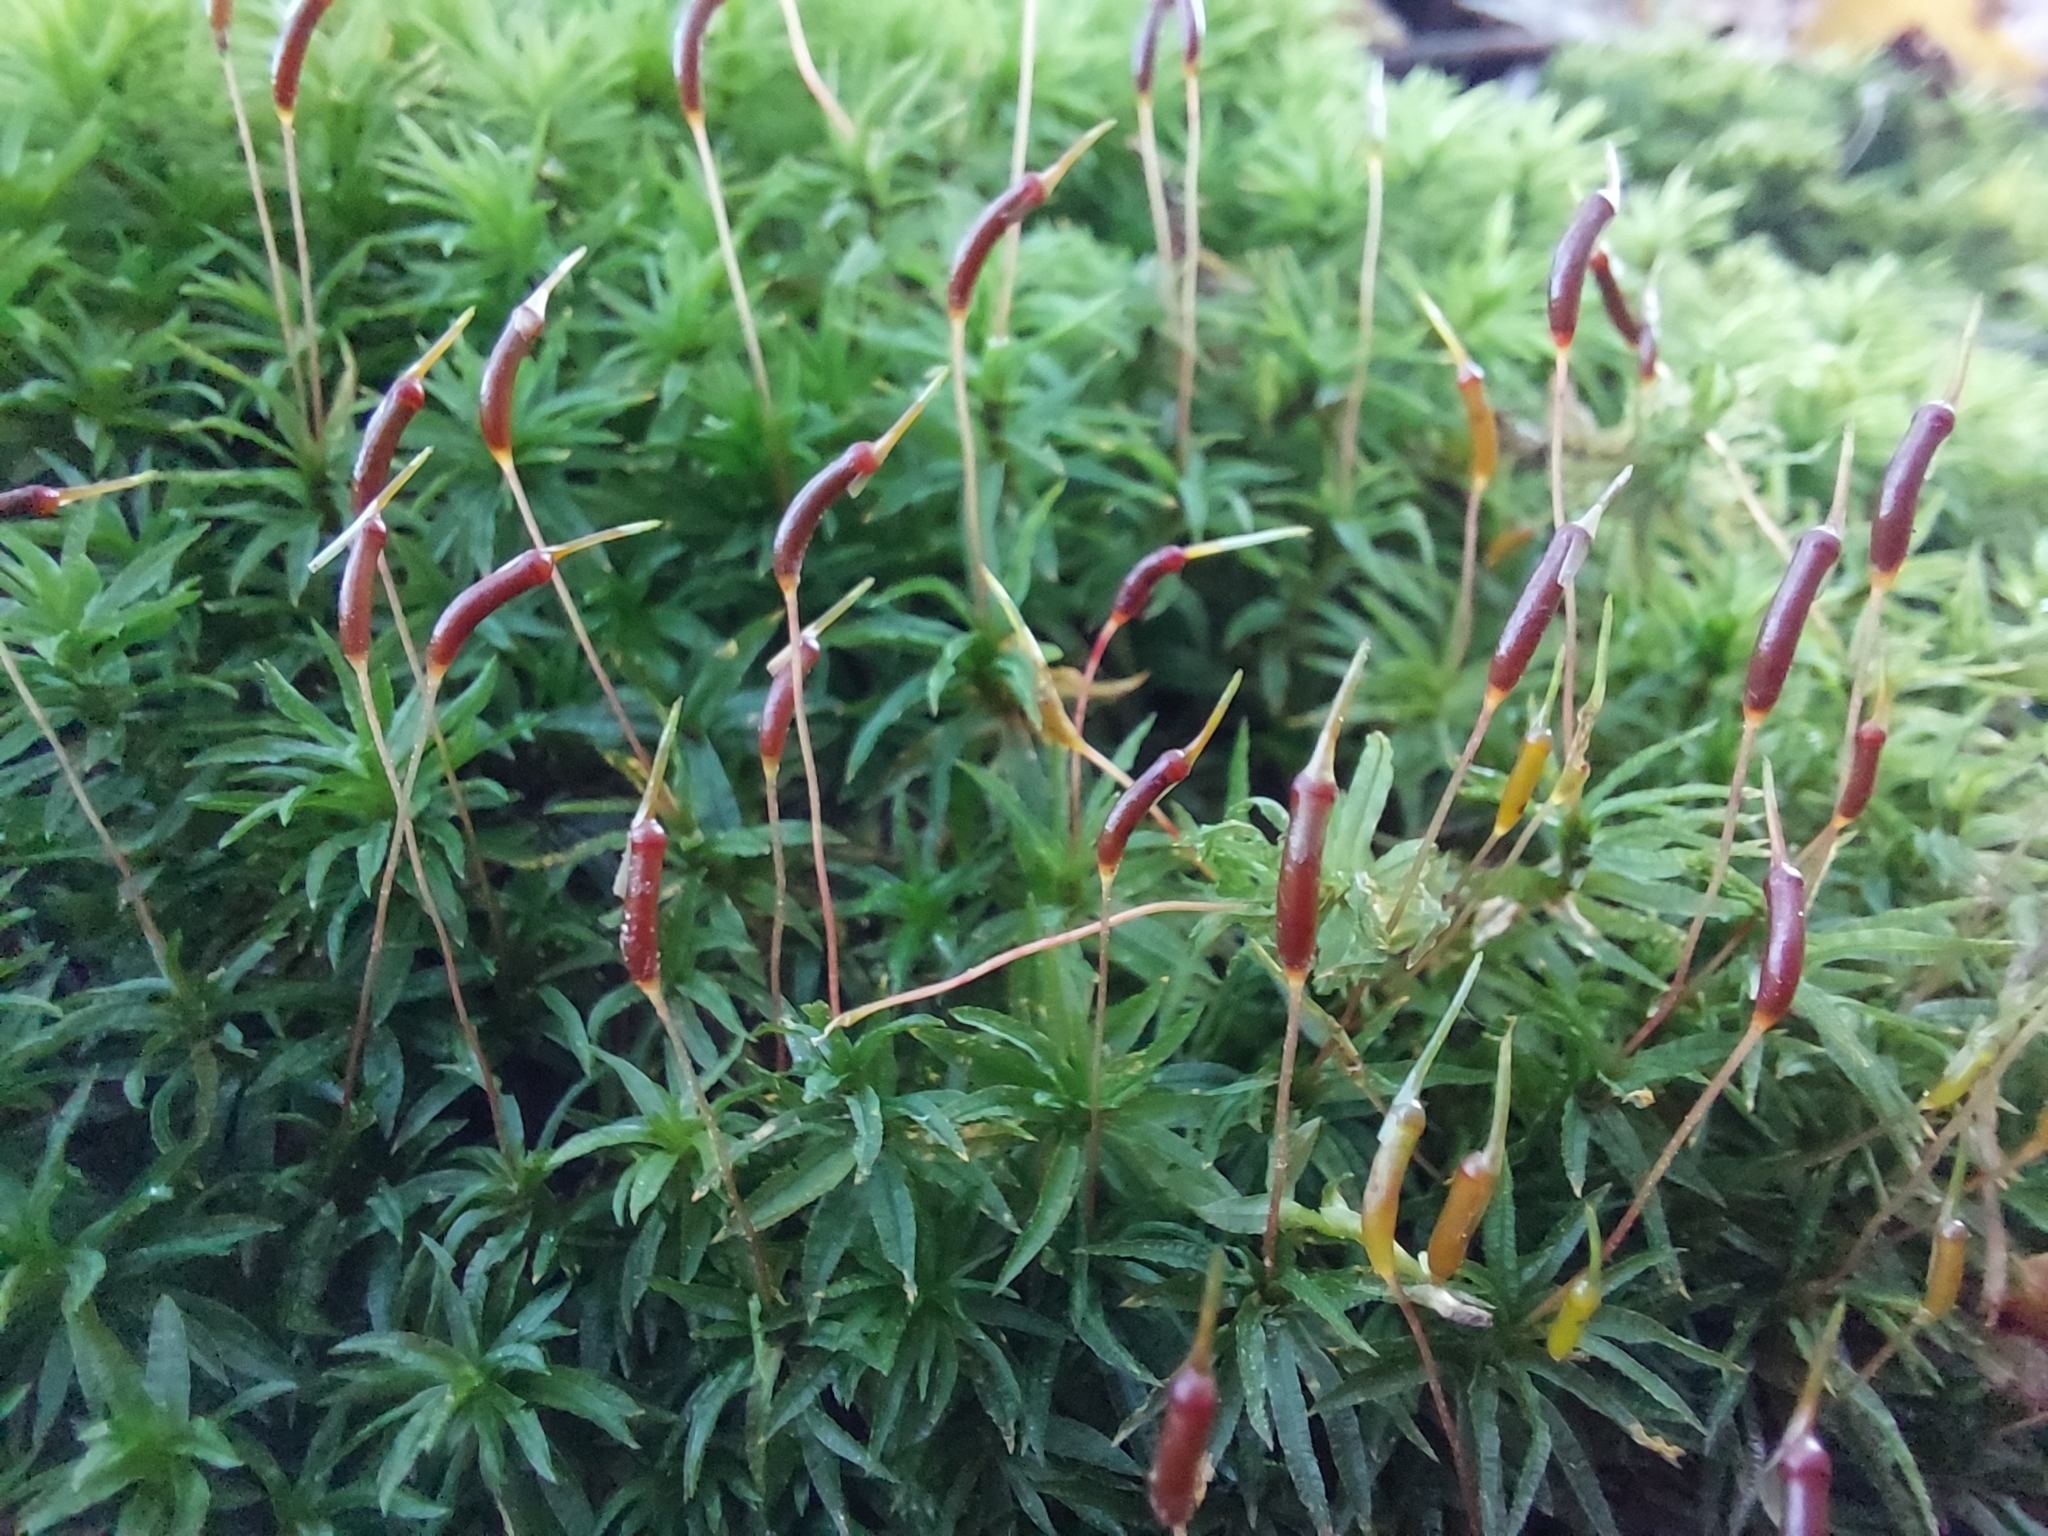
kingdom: Plantae
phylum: Bryophyta
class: Polytrichopsida
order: Polytrichales
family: Polytrichaceae
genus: Atrichum
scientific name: Atrichum undulatum
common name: Common smoothcap
